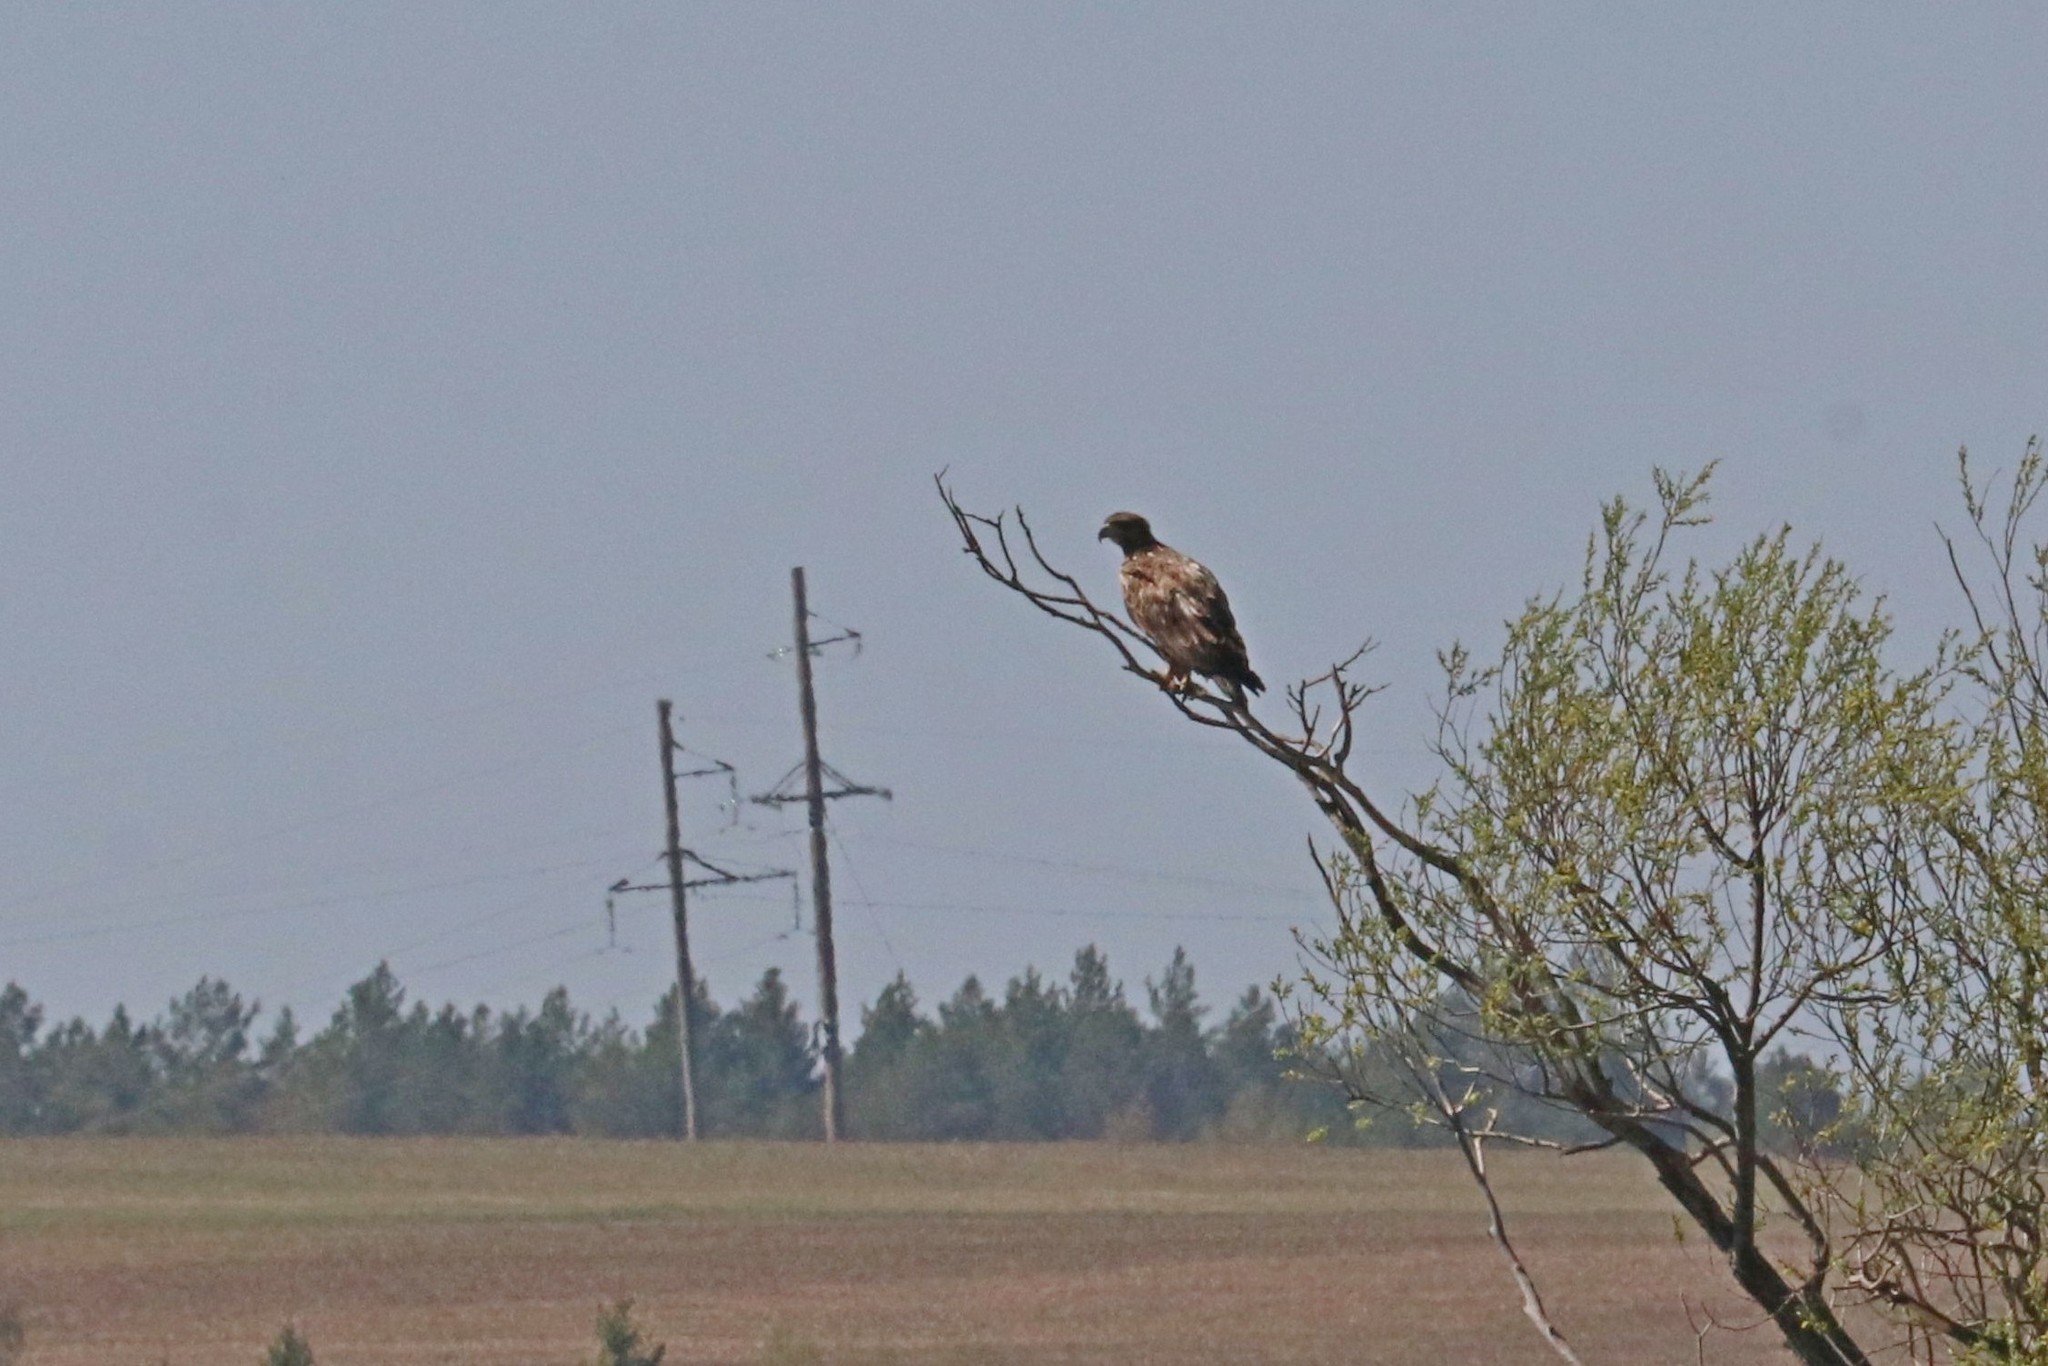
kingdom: Animalia
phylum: Chordata
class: Aves
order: Accipitriformes
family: Accipitridae
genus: Haliaeetus
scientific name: Haliaeetus albicilla
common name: White-tailed eagle
